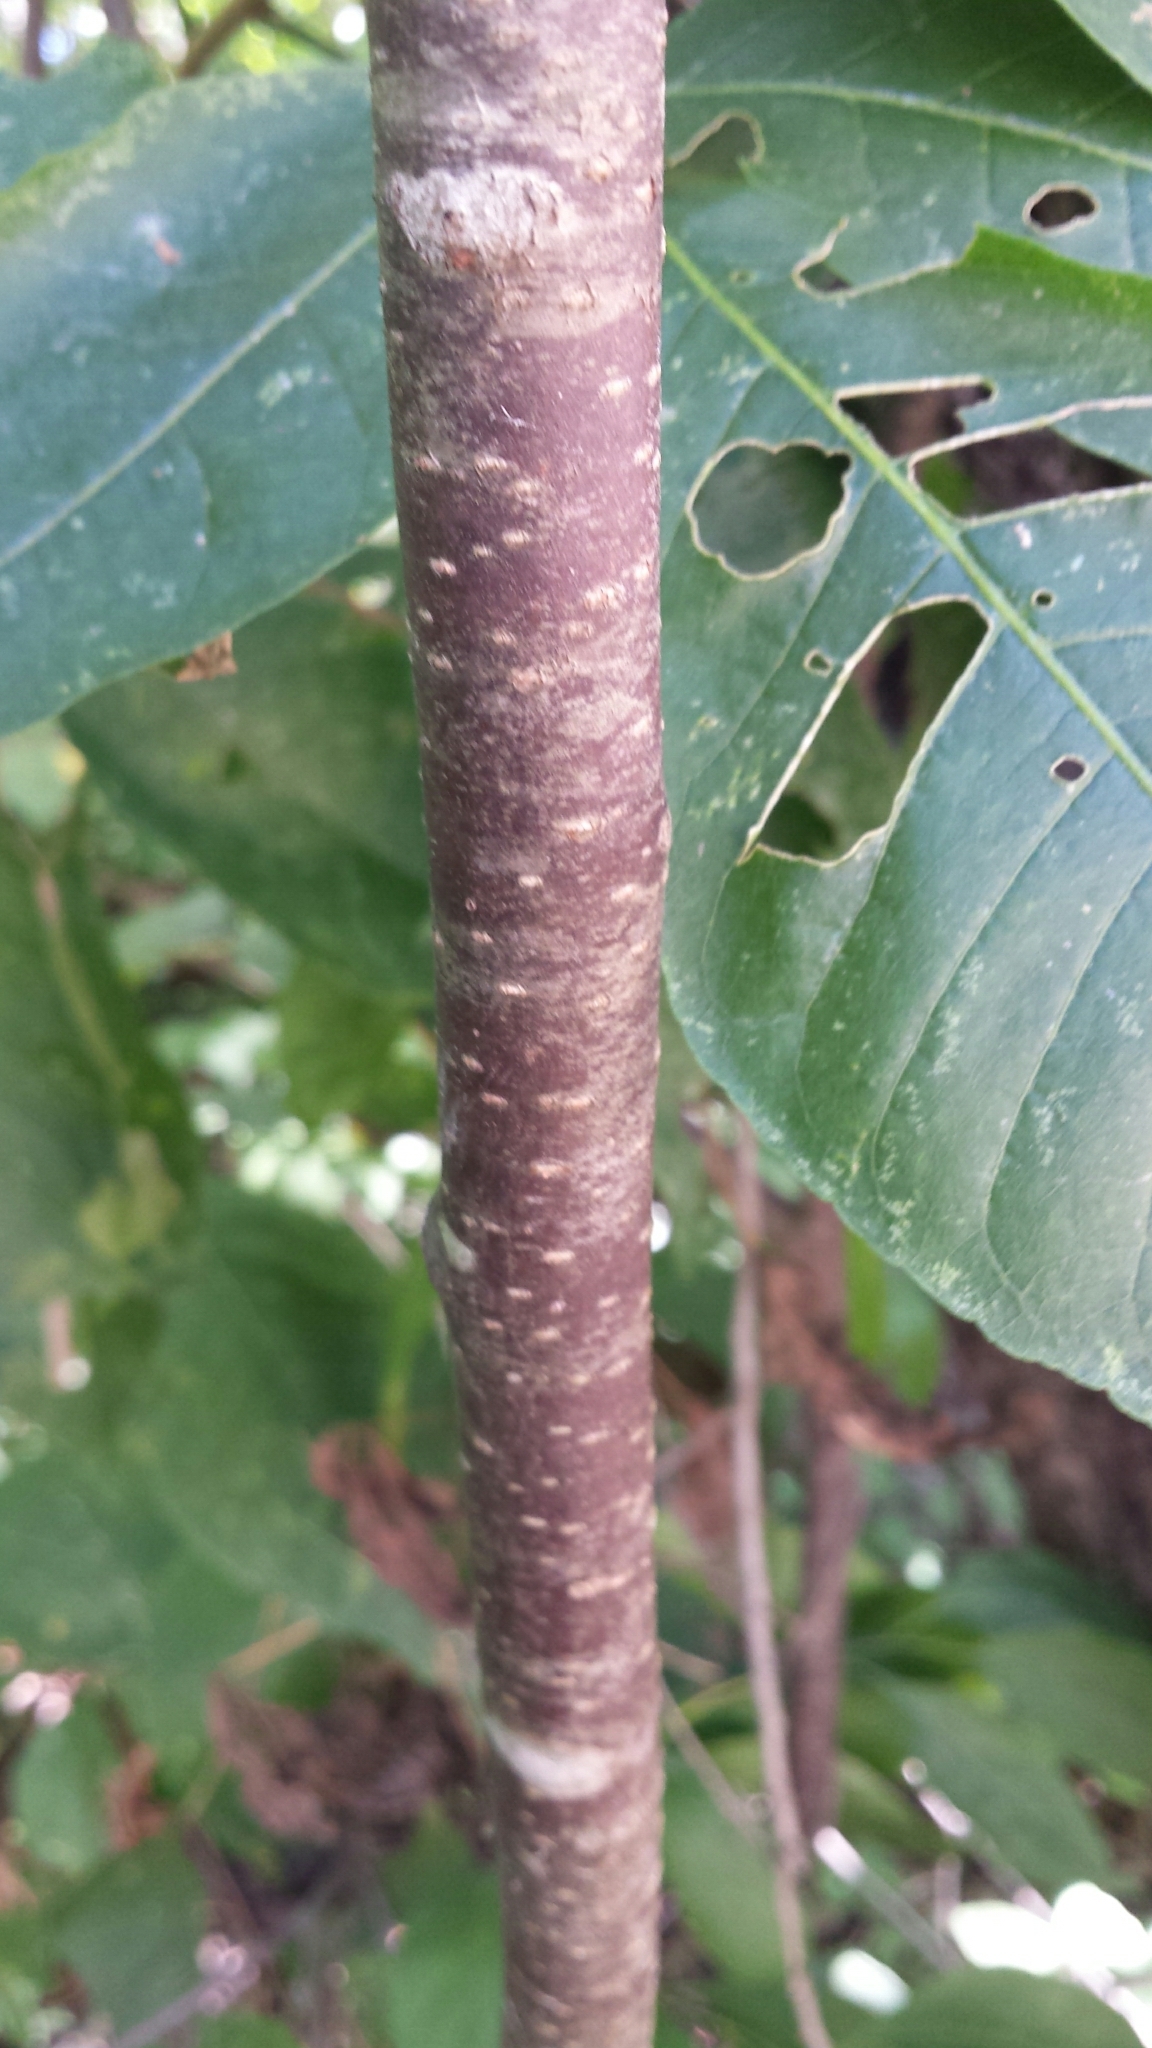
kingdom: Plantae
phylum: Tracheophyta
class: Magnoliopsida
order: Sapindales
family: Rutaceae
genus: Ptelea
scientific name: Ptelea trifoliata
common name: Common hop-tree
